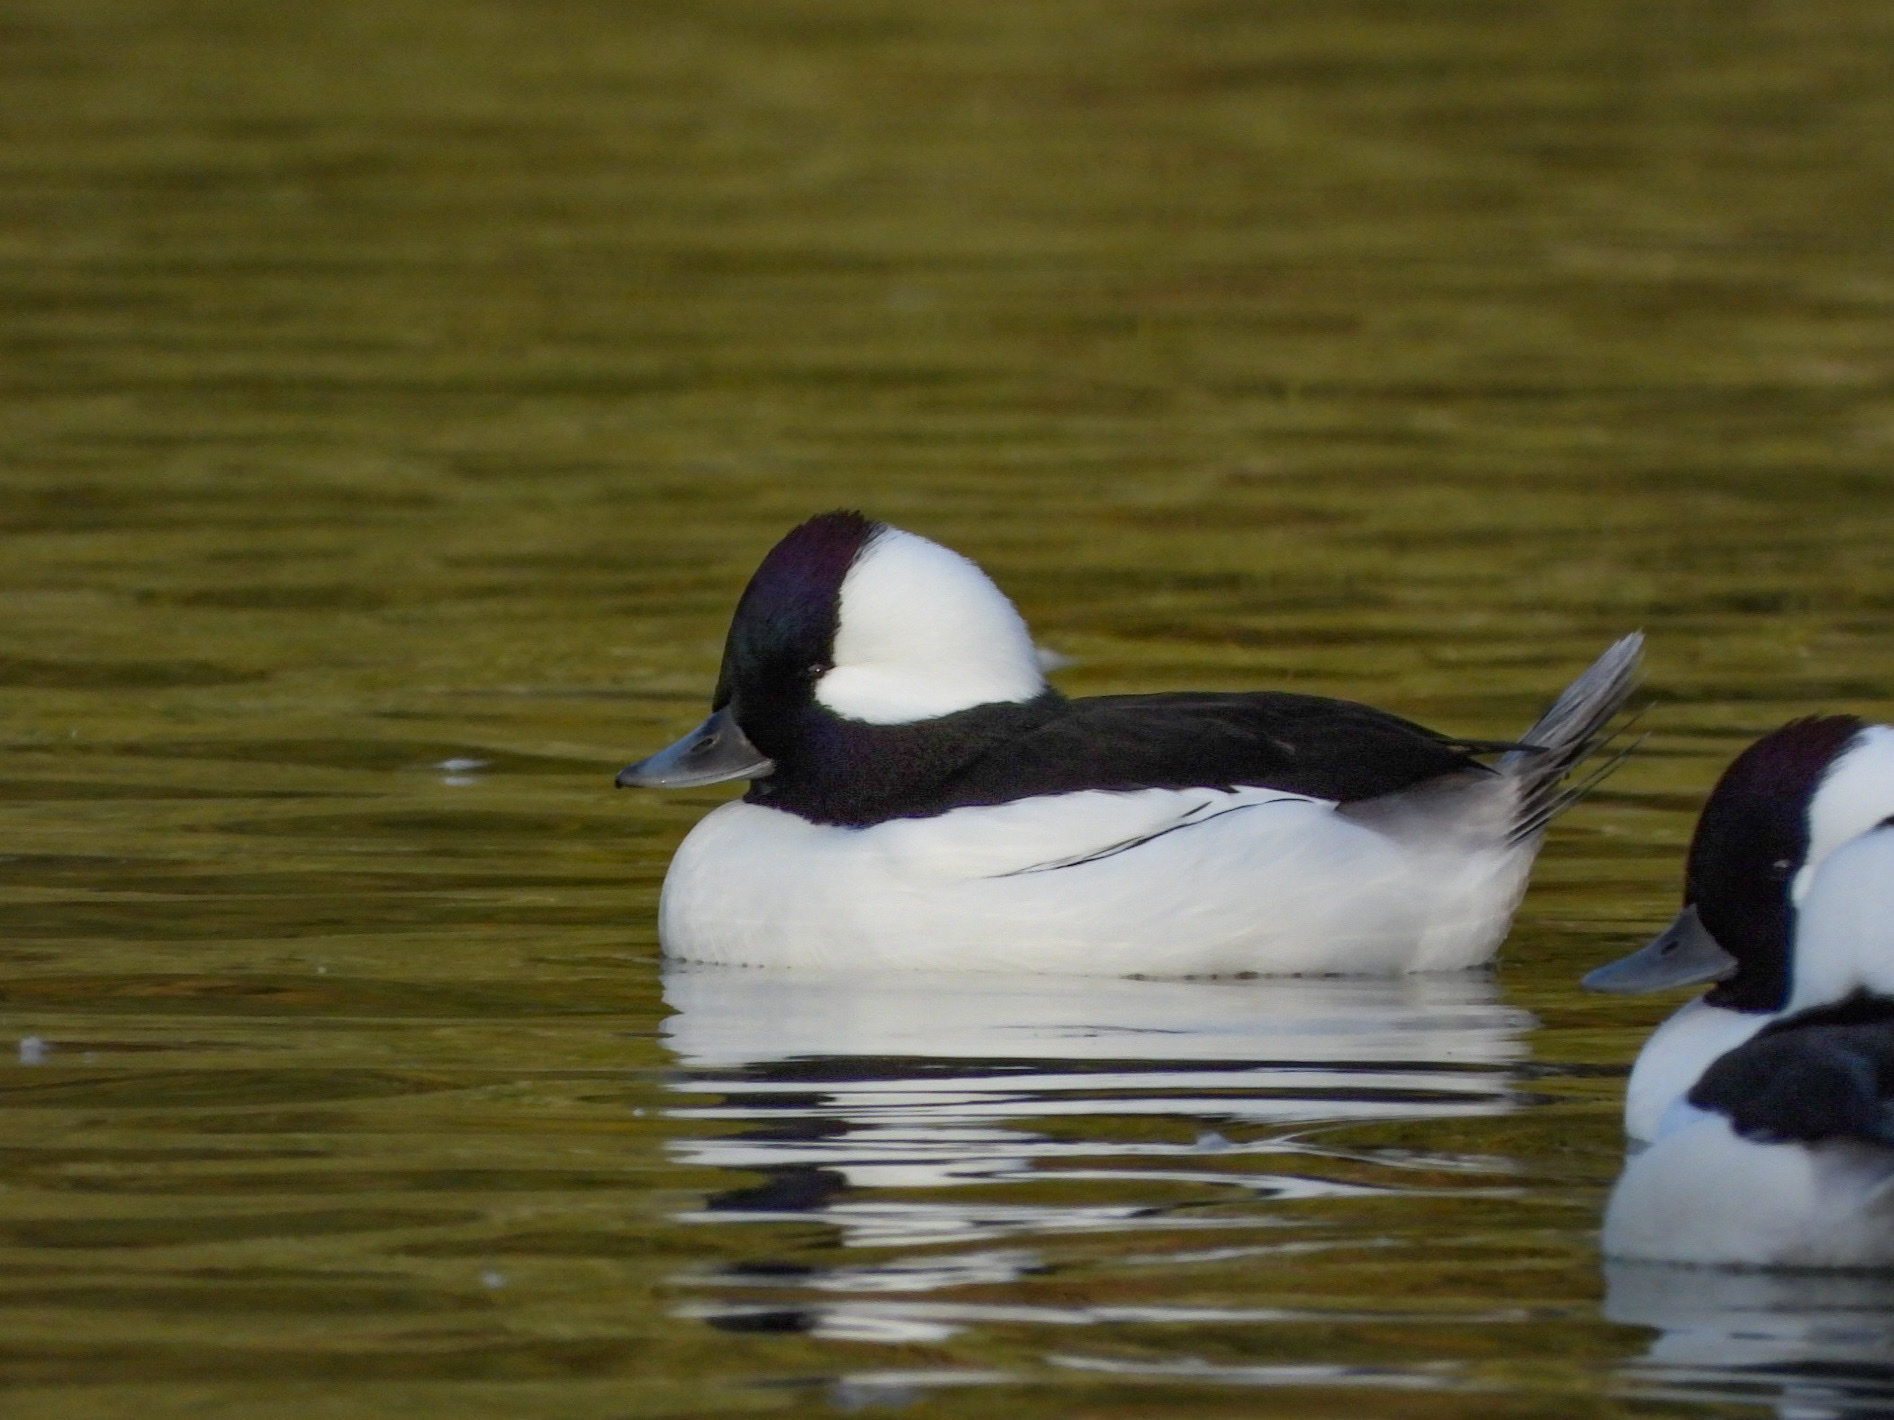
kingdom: Animalia
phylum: Chordata
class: Aves
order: Anseriformes
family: Anatidae
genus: Bucephala
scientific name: Bucephala albeola
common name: Bufflehead
